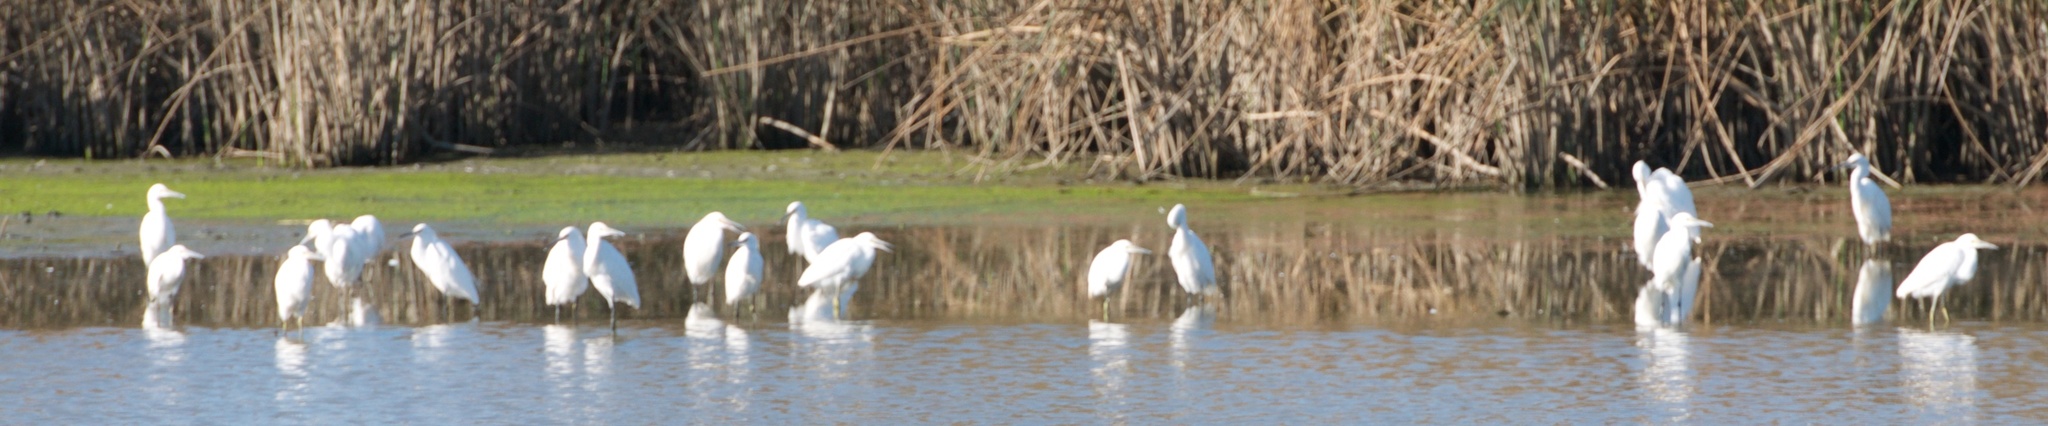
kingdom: Animalia
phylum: Chordata
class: Aves
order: Pelecaniformes
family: Ardeidae
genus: Ardea
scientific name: Ardea alba
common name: Great egret
